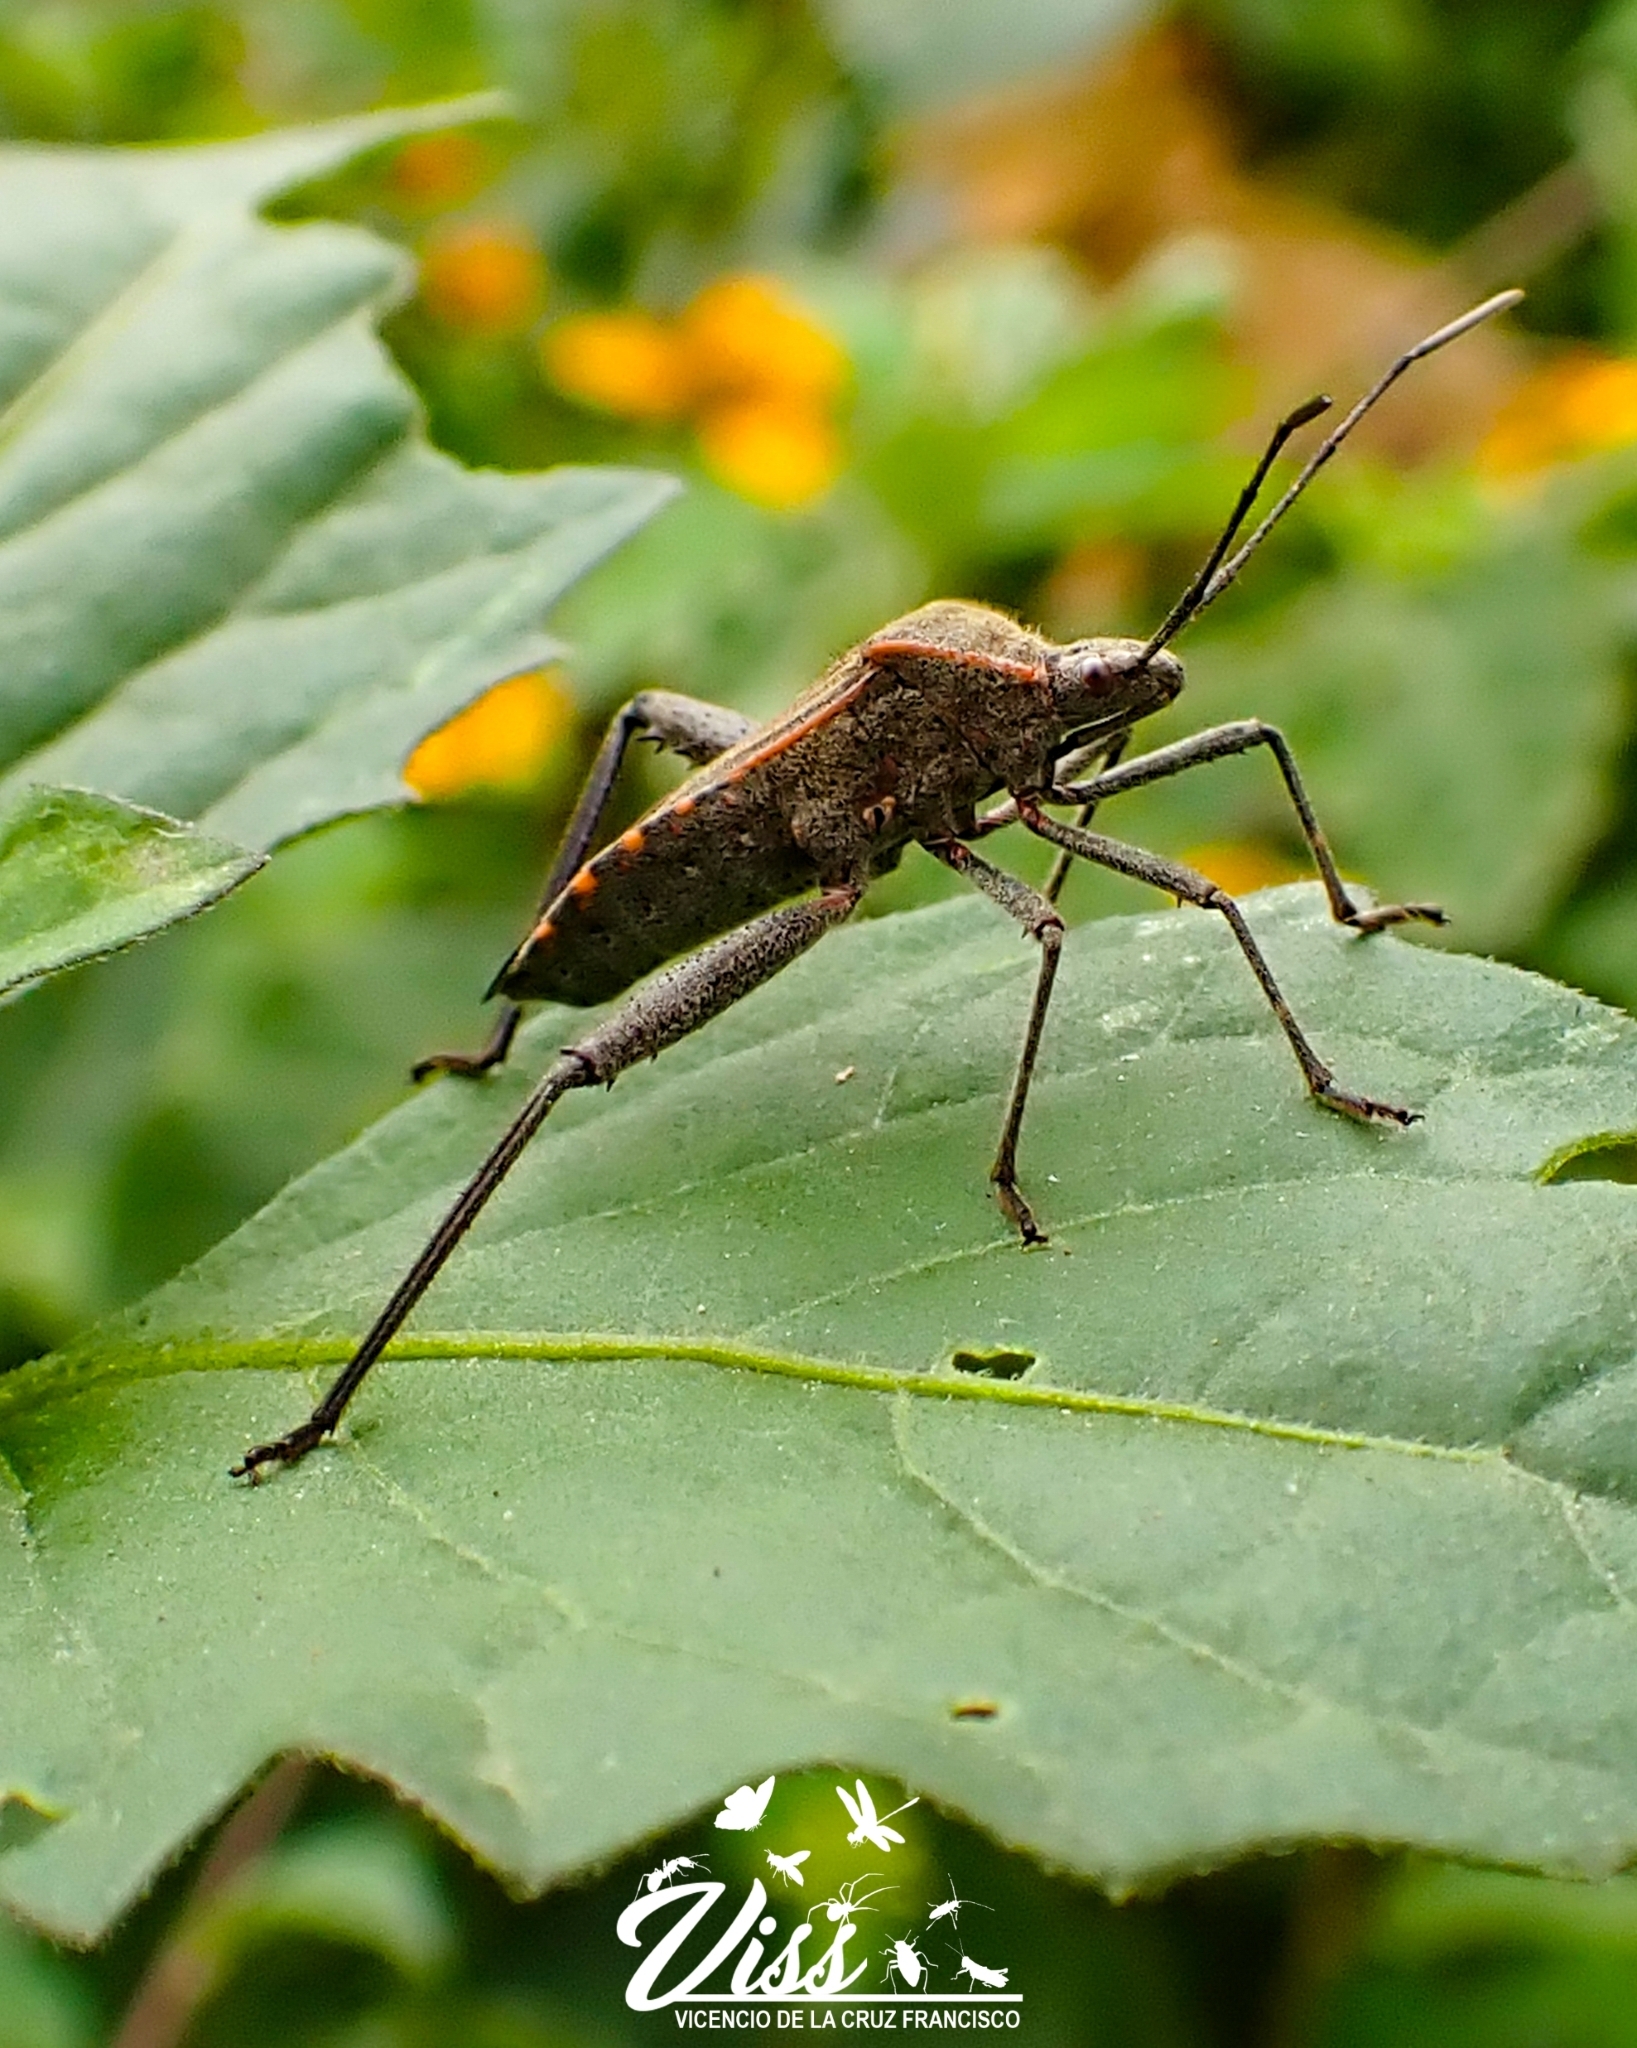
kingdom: Animalia
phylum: Arthropoda
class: Insecta
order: Hemiptera
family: Coreidae
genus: Phthiacnemia
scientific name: Phthiacnemia picta
